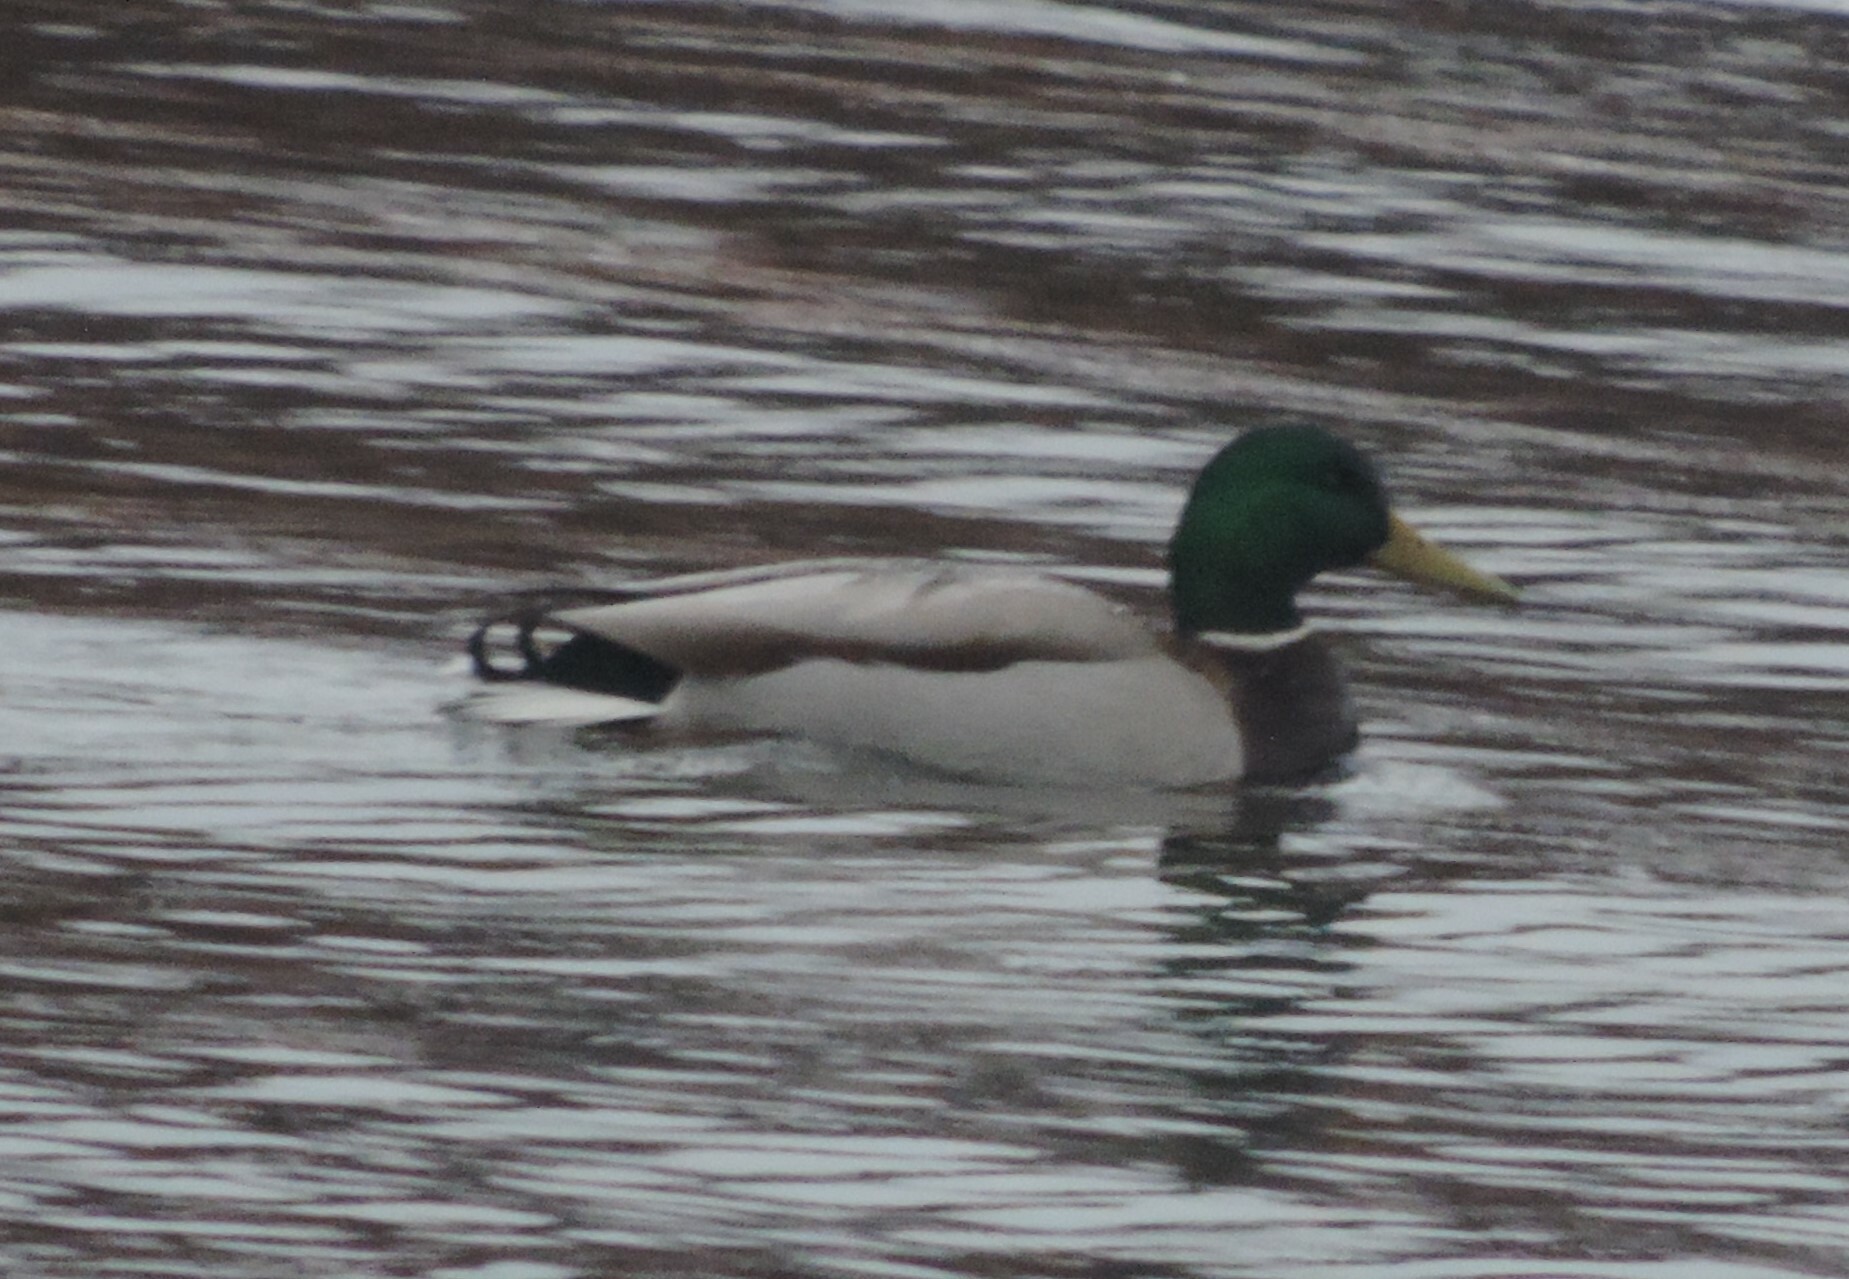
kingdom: Animalia
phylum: Chordata
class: Aves
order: Anseriformes
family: Anatidae
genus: Anas
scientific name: Anas platyrhynchos
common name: Mallard
